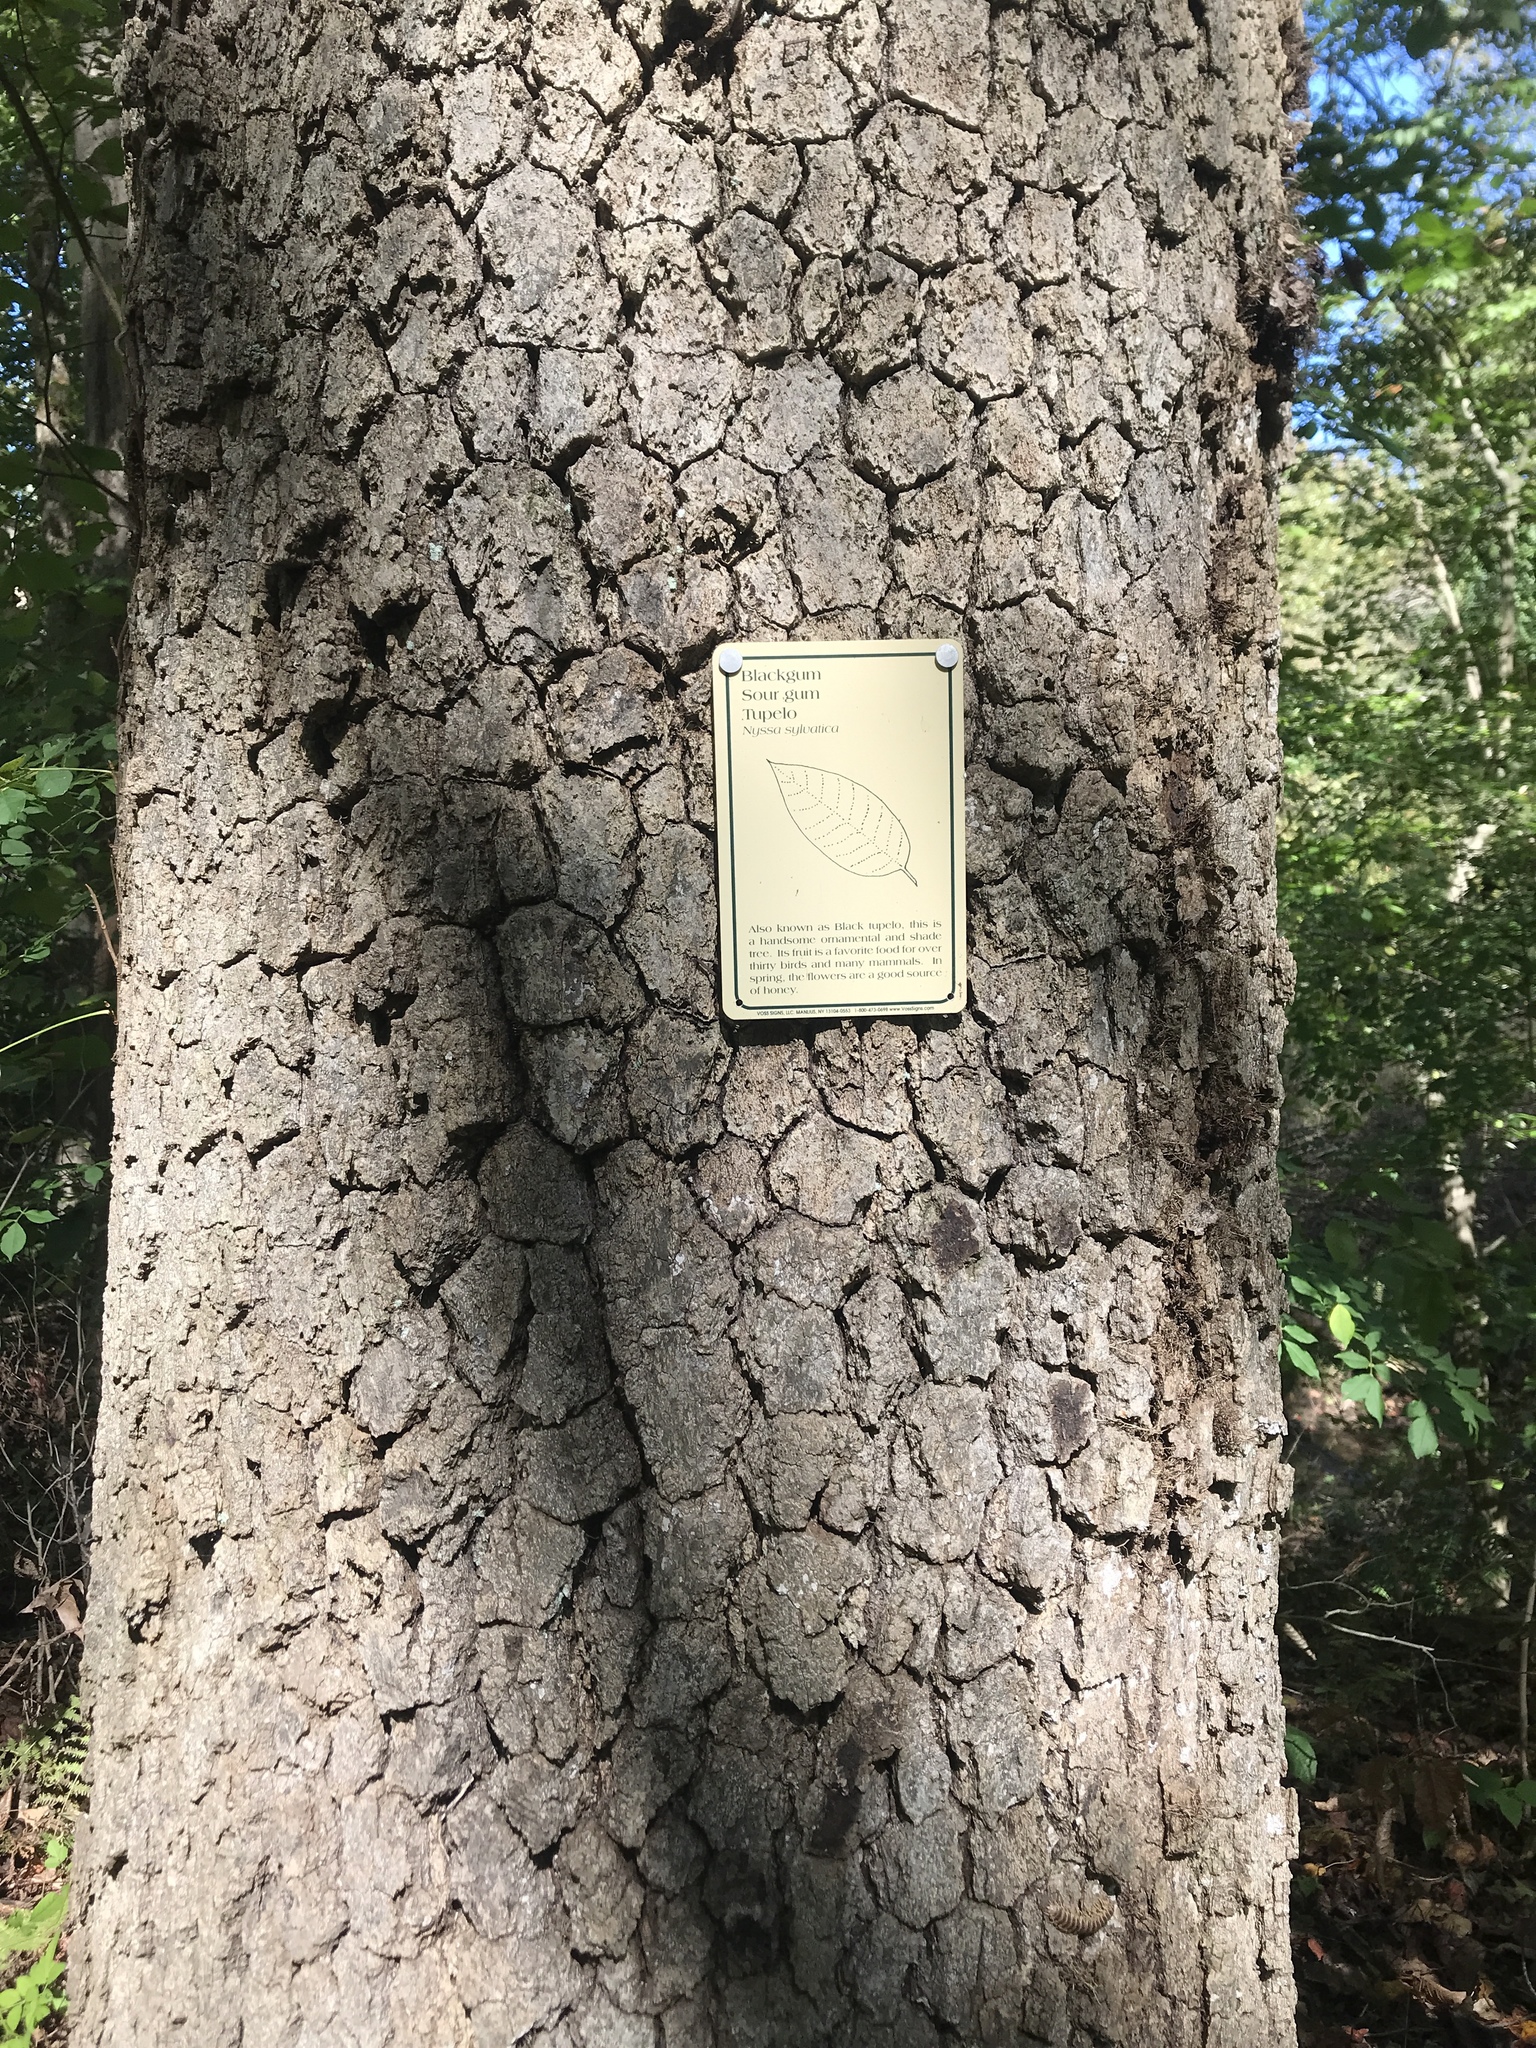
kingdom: Plantae
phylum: Tracheophyta
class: Magnoliopsida
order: Cornales
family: Nyssaceae
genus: Nyssa
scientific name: Nyssa sylvatica
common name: Black tupelo
